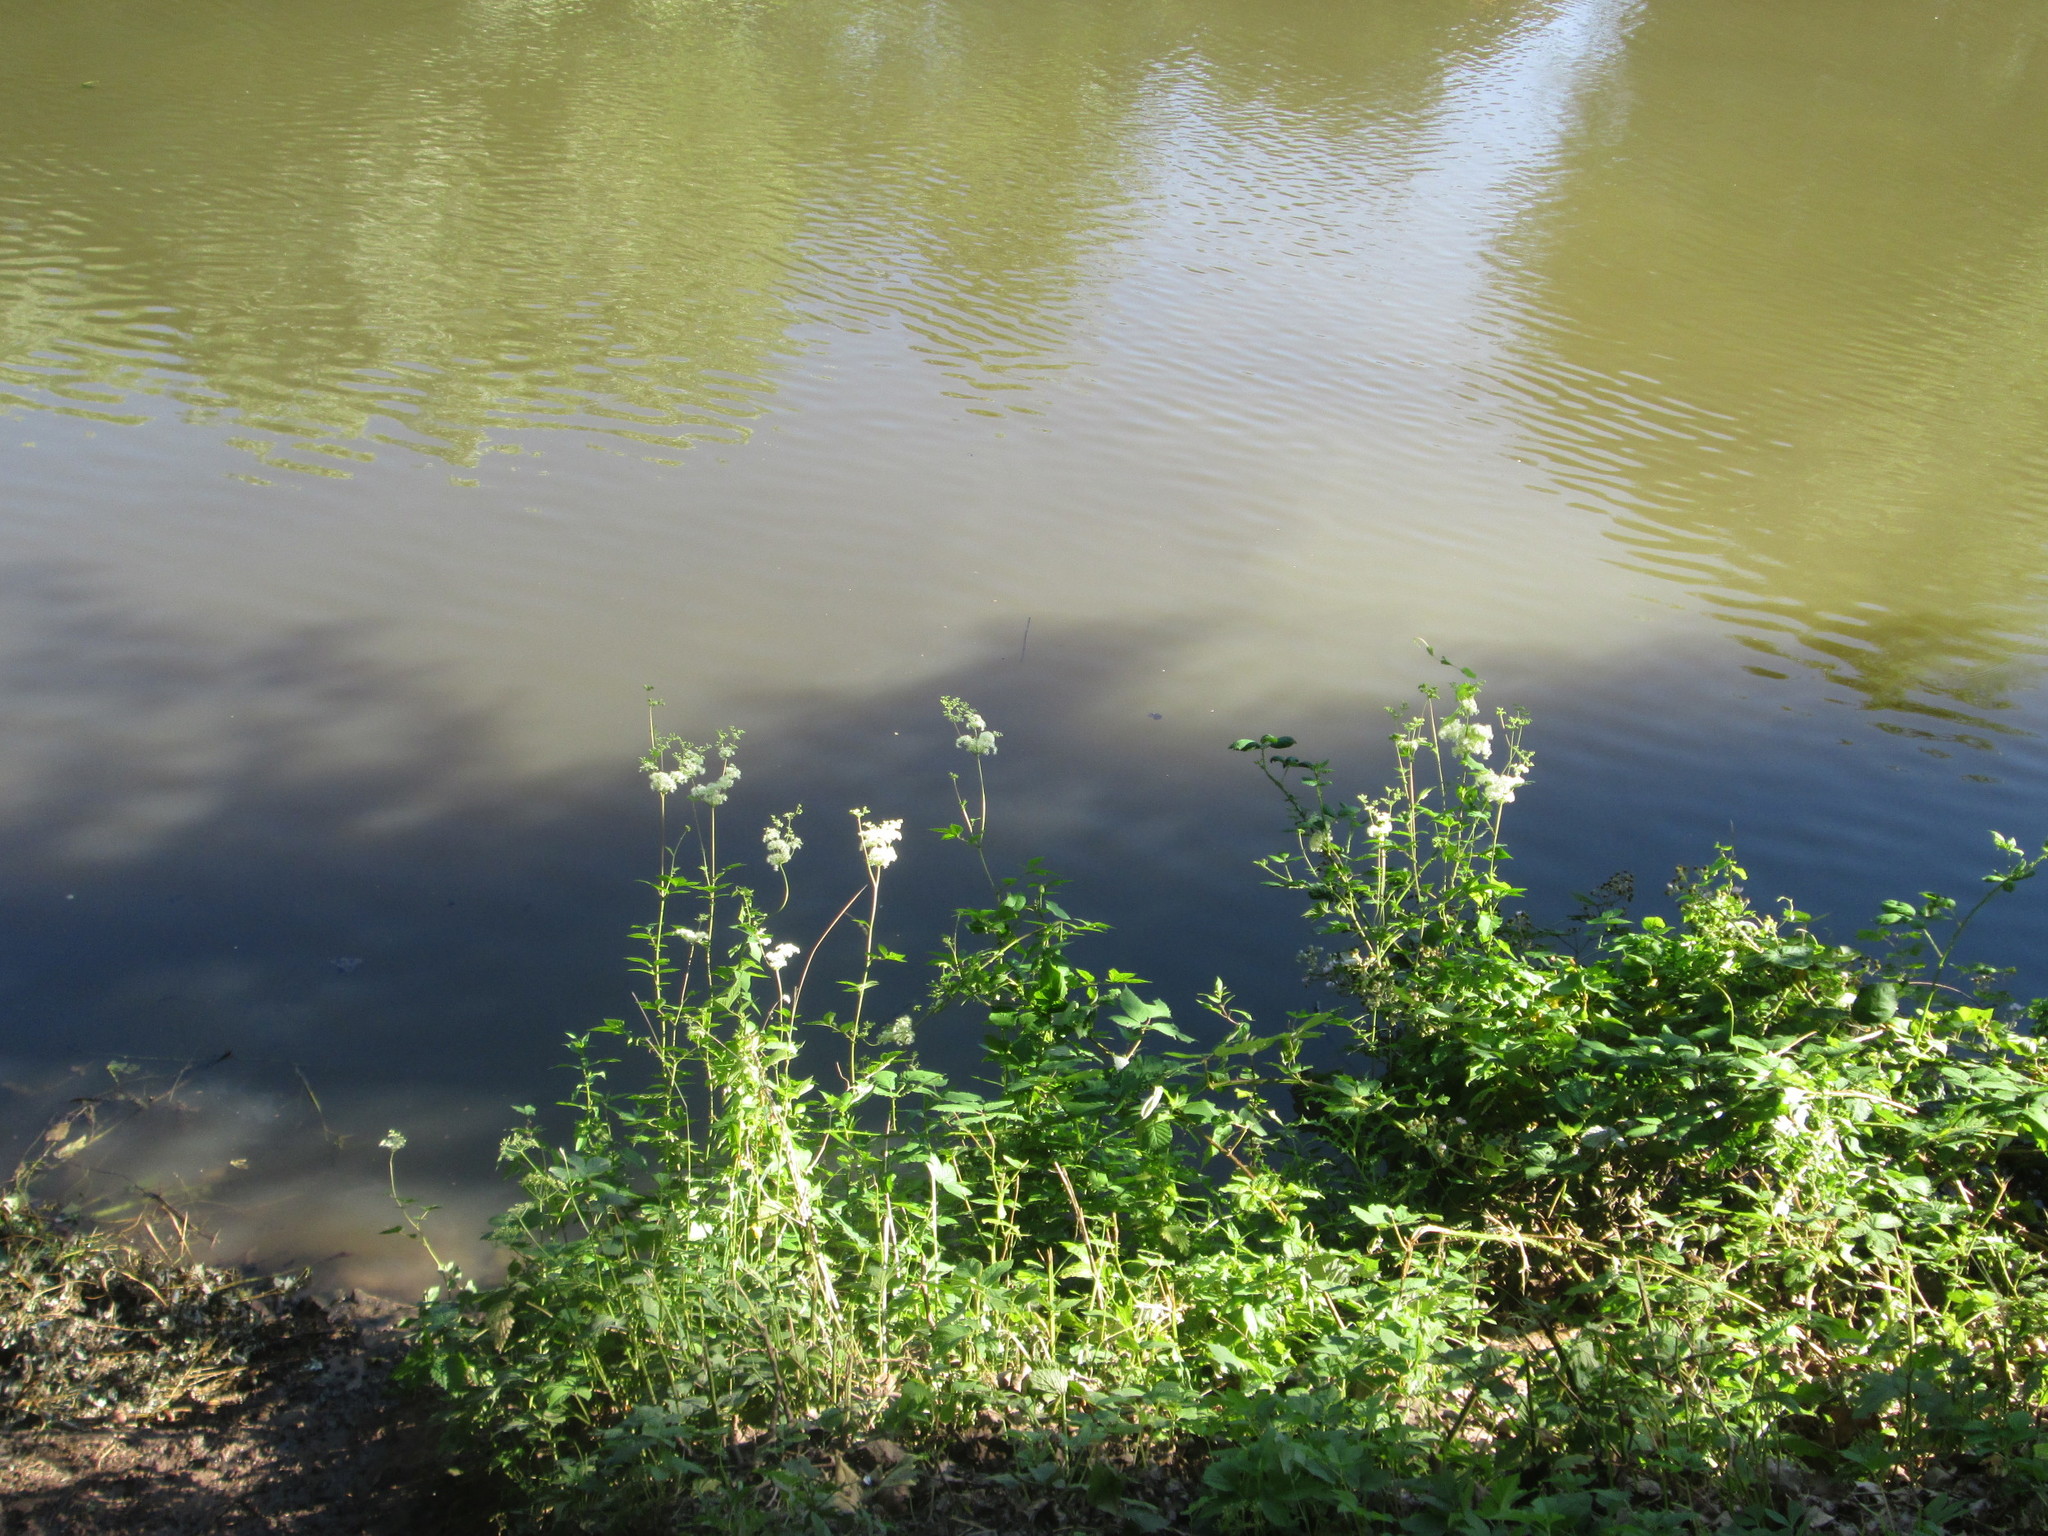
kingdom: Plantae
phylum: Tracheophyta
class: Magnoliopsida
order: Rosales
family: Rosaceae
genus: Filipendula
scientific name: Filipendula ulmaria
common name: Meadowsweet
